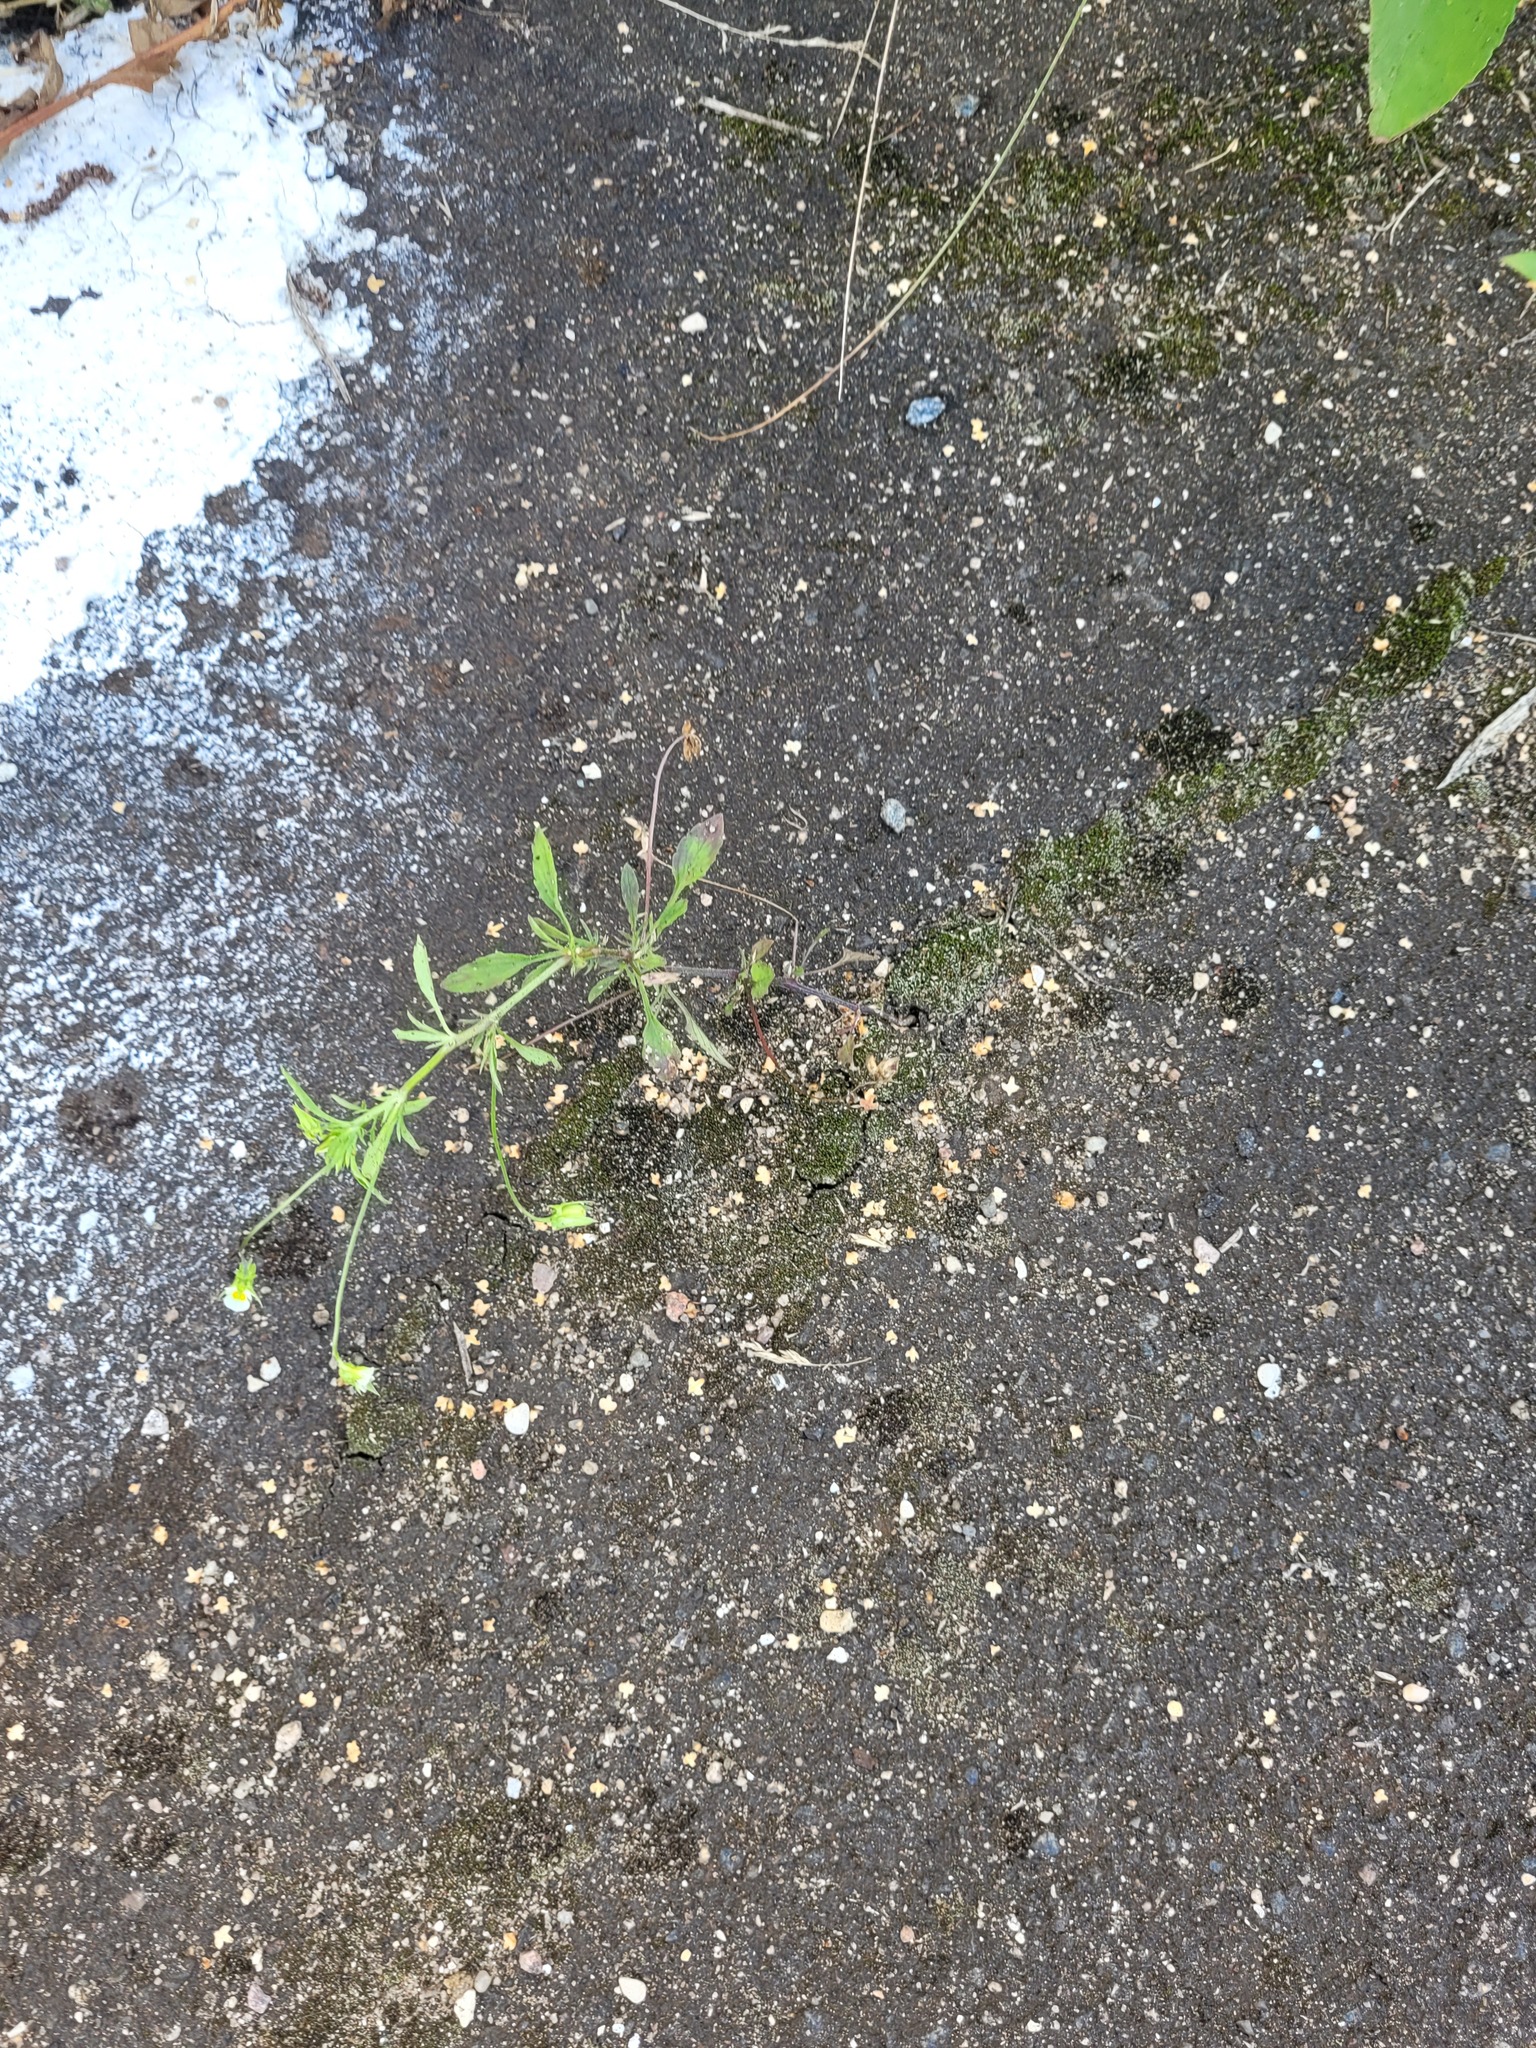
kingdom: Plantae
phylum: Tracheophyta
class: Magnoliopsida
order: Malpighiales
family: Violaceae
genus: Viola
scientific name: Viola arvensis
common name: Field pansy
